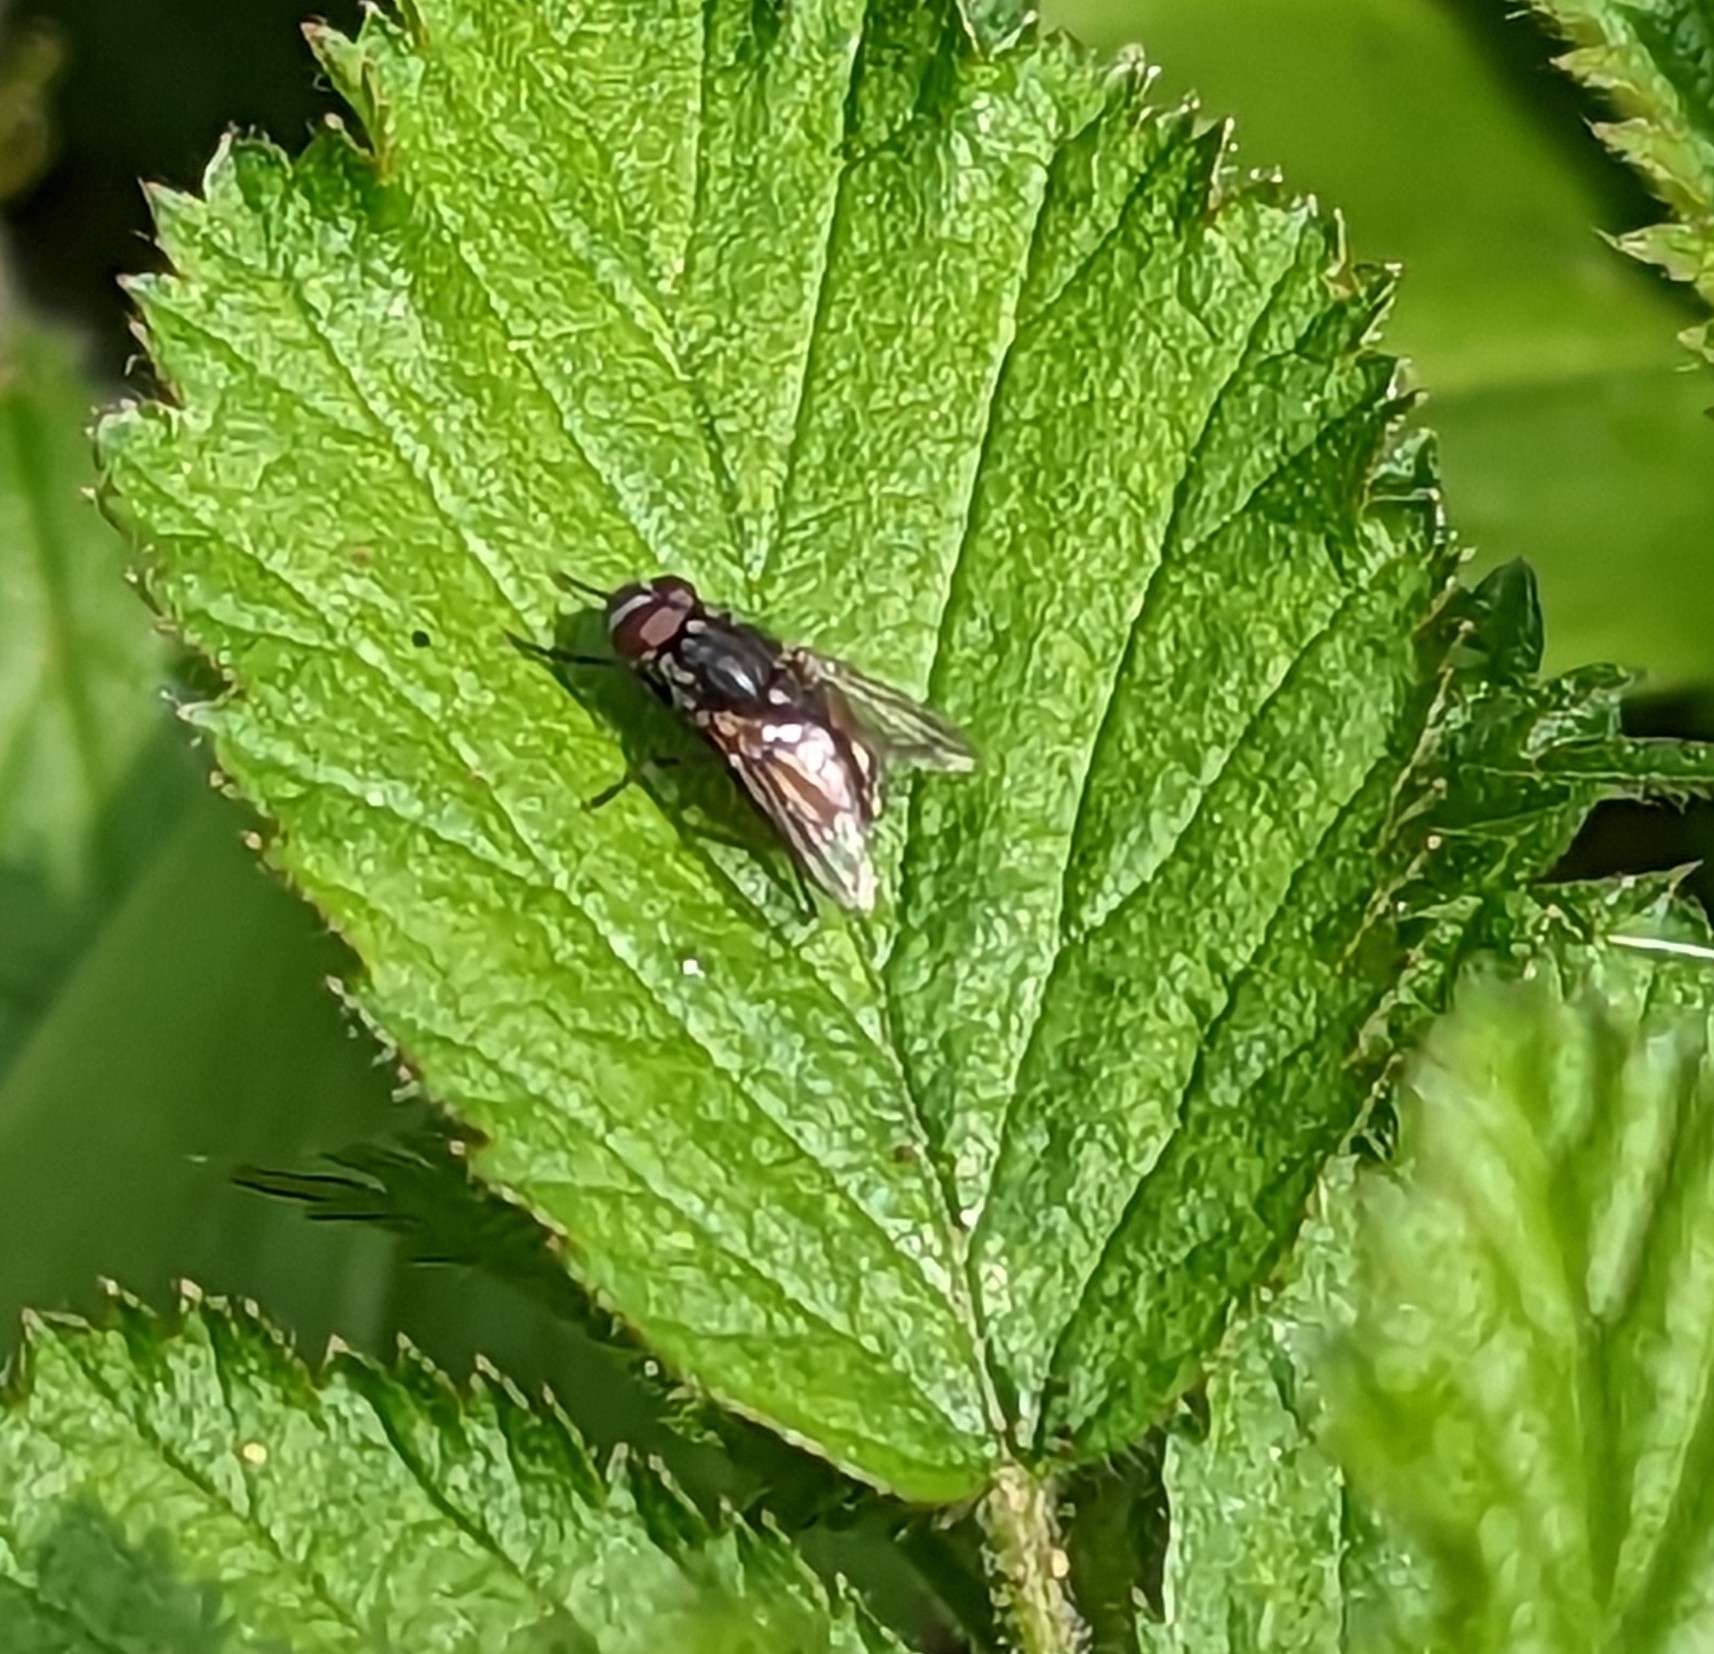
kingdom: Animalia
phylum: Arthropoda
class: Insecta
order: Diptera
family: Muscidae
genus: Musca
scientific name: Musca autumnalis
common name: Face fly
